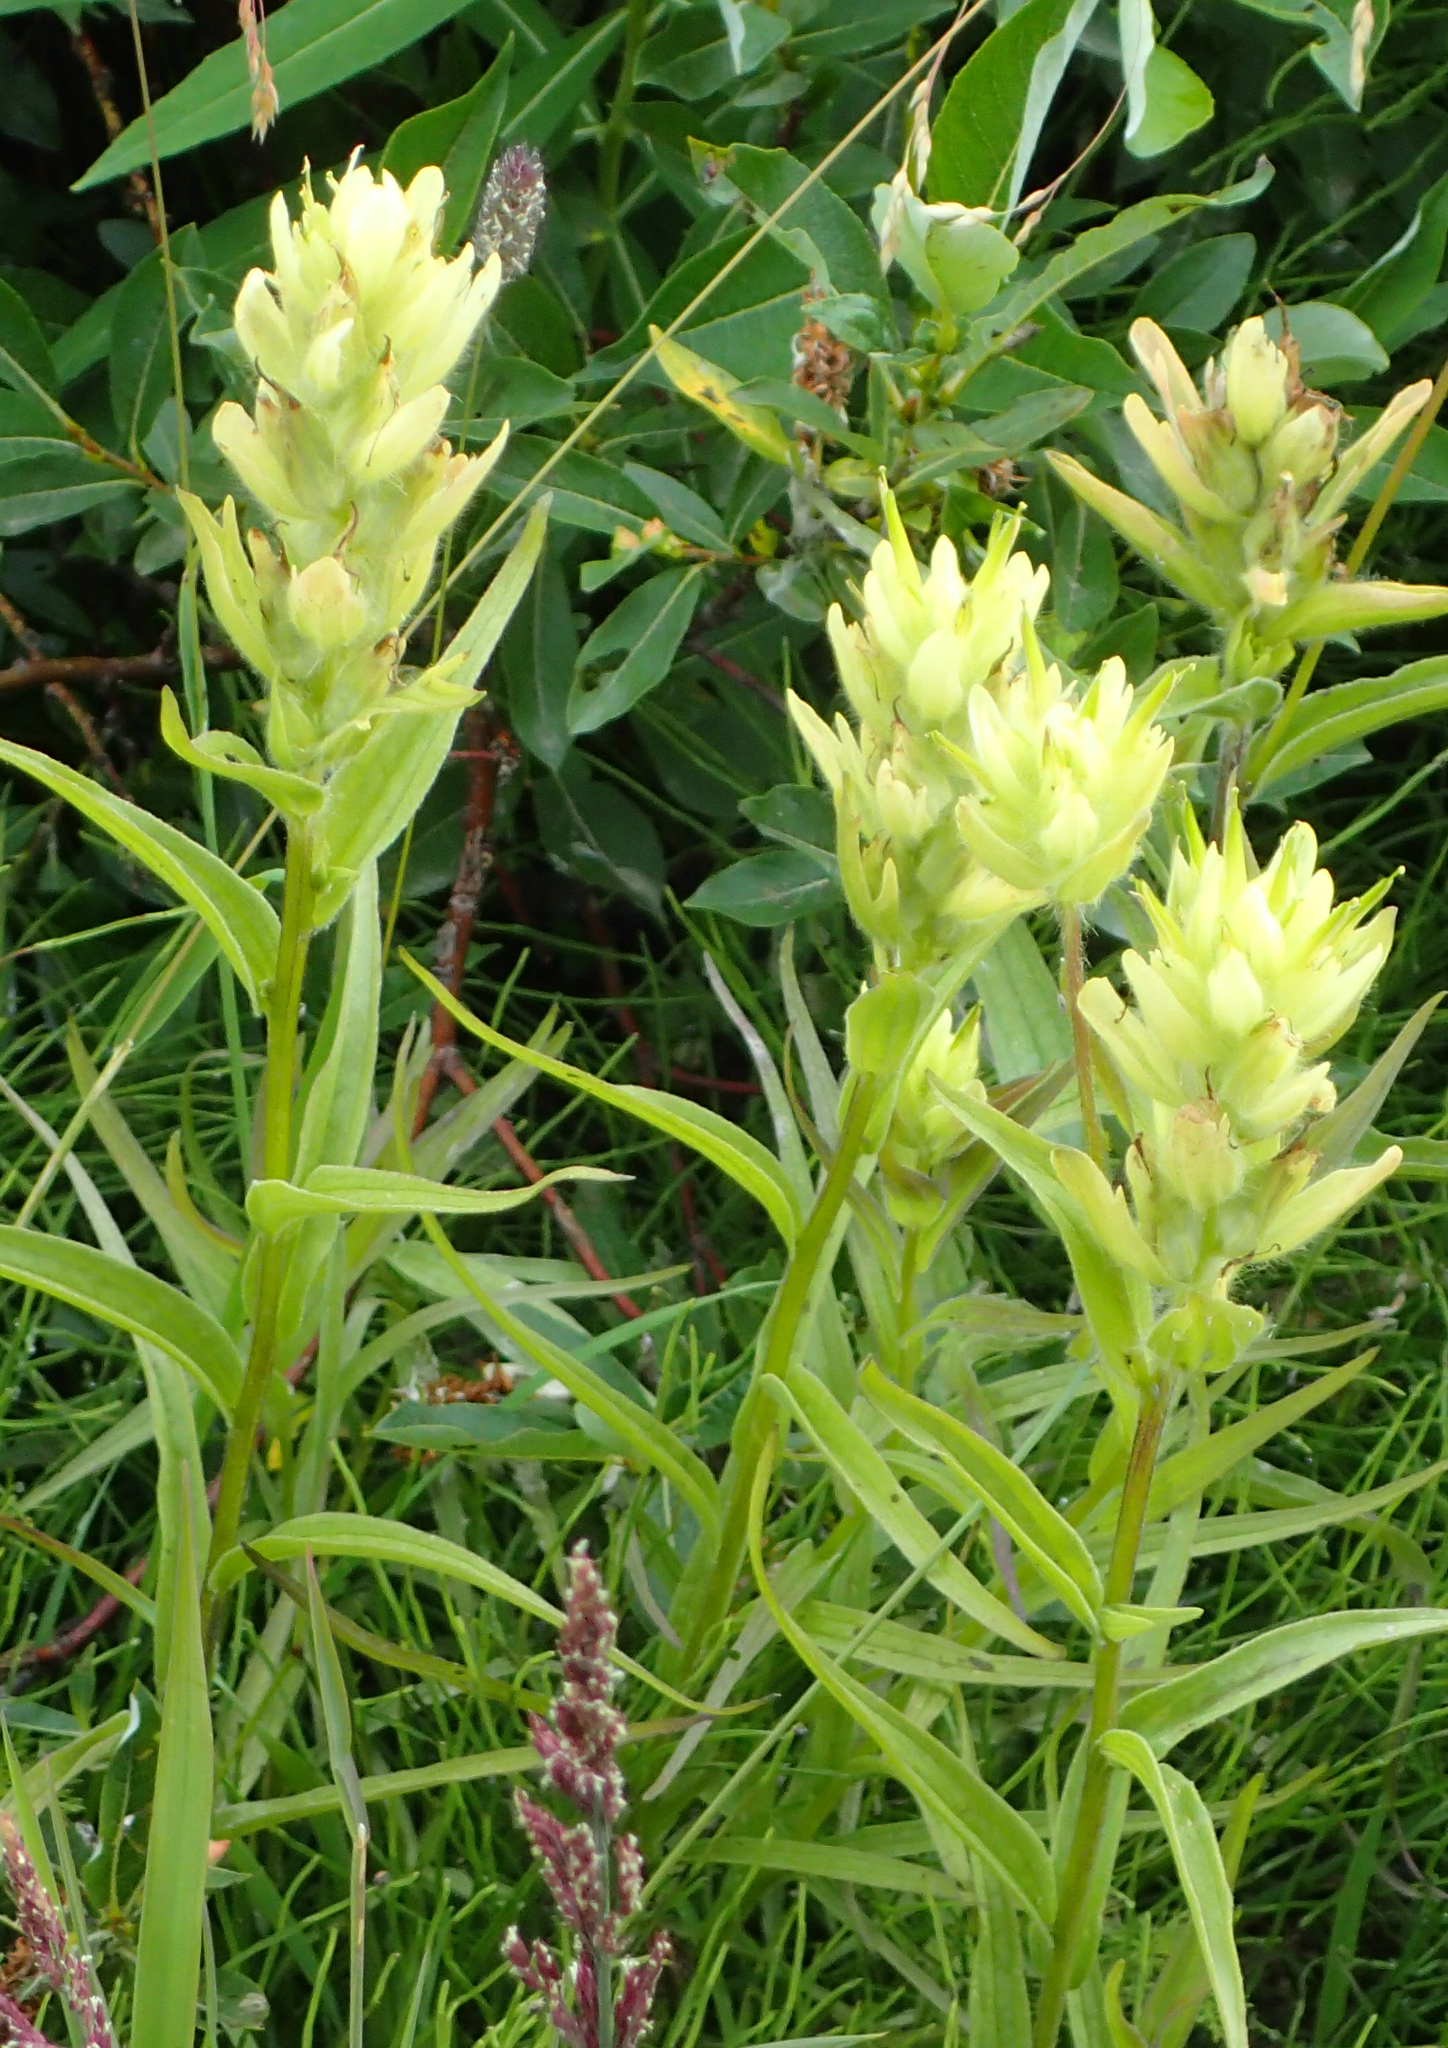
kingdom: Plantae
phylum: Tracheophyta
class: Magnoliopsida
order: Lamiales
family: Orobanchaceae
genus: Castilleja
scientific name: Castilleja unalaschcensis
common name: Unalaska paintbrush
